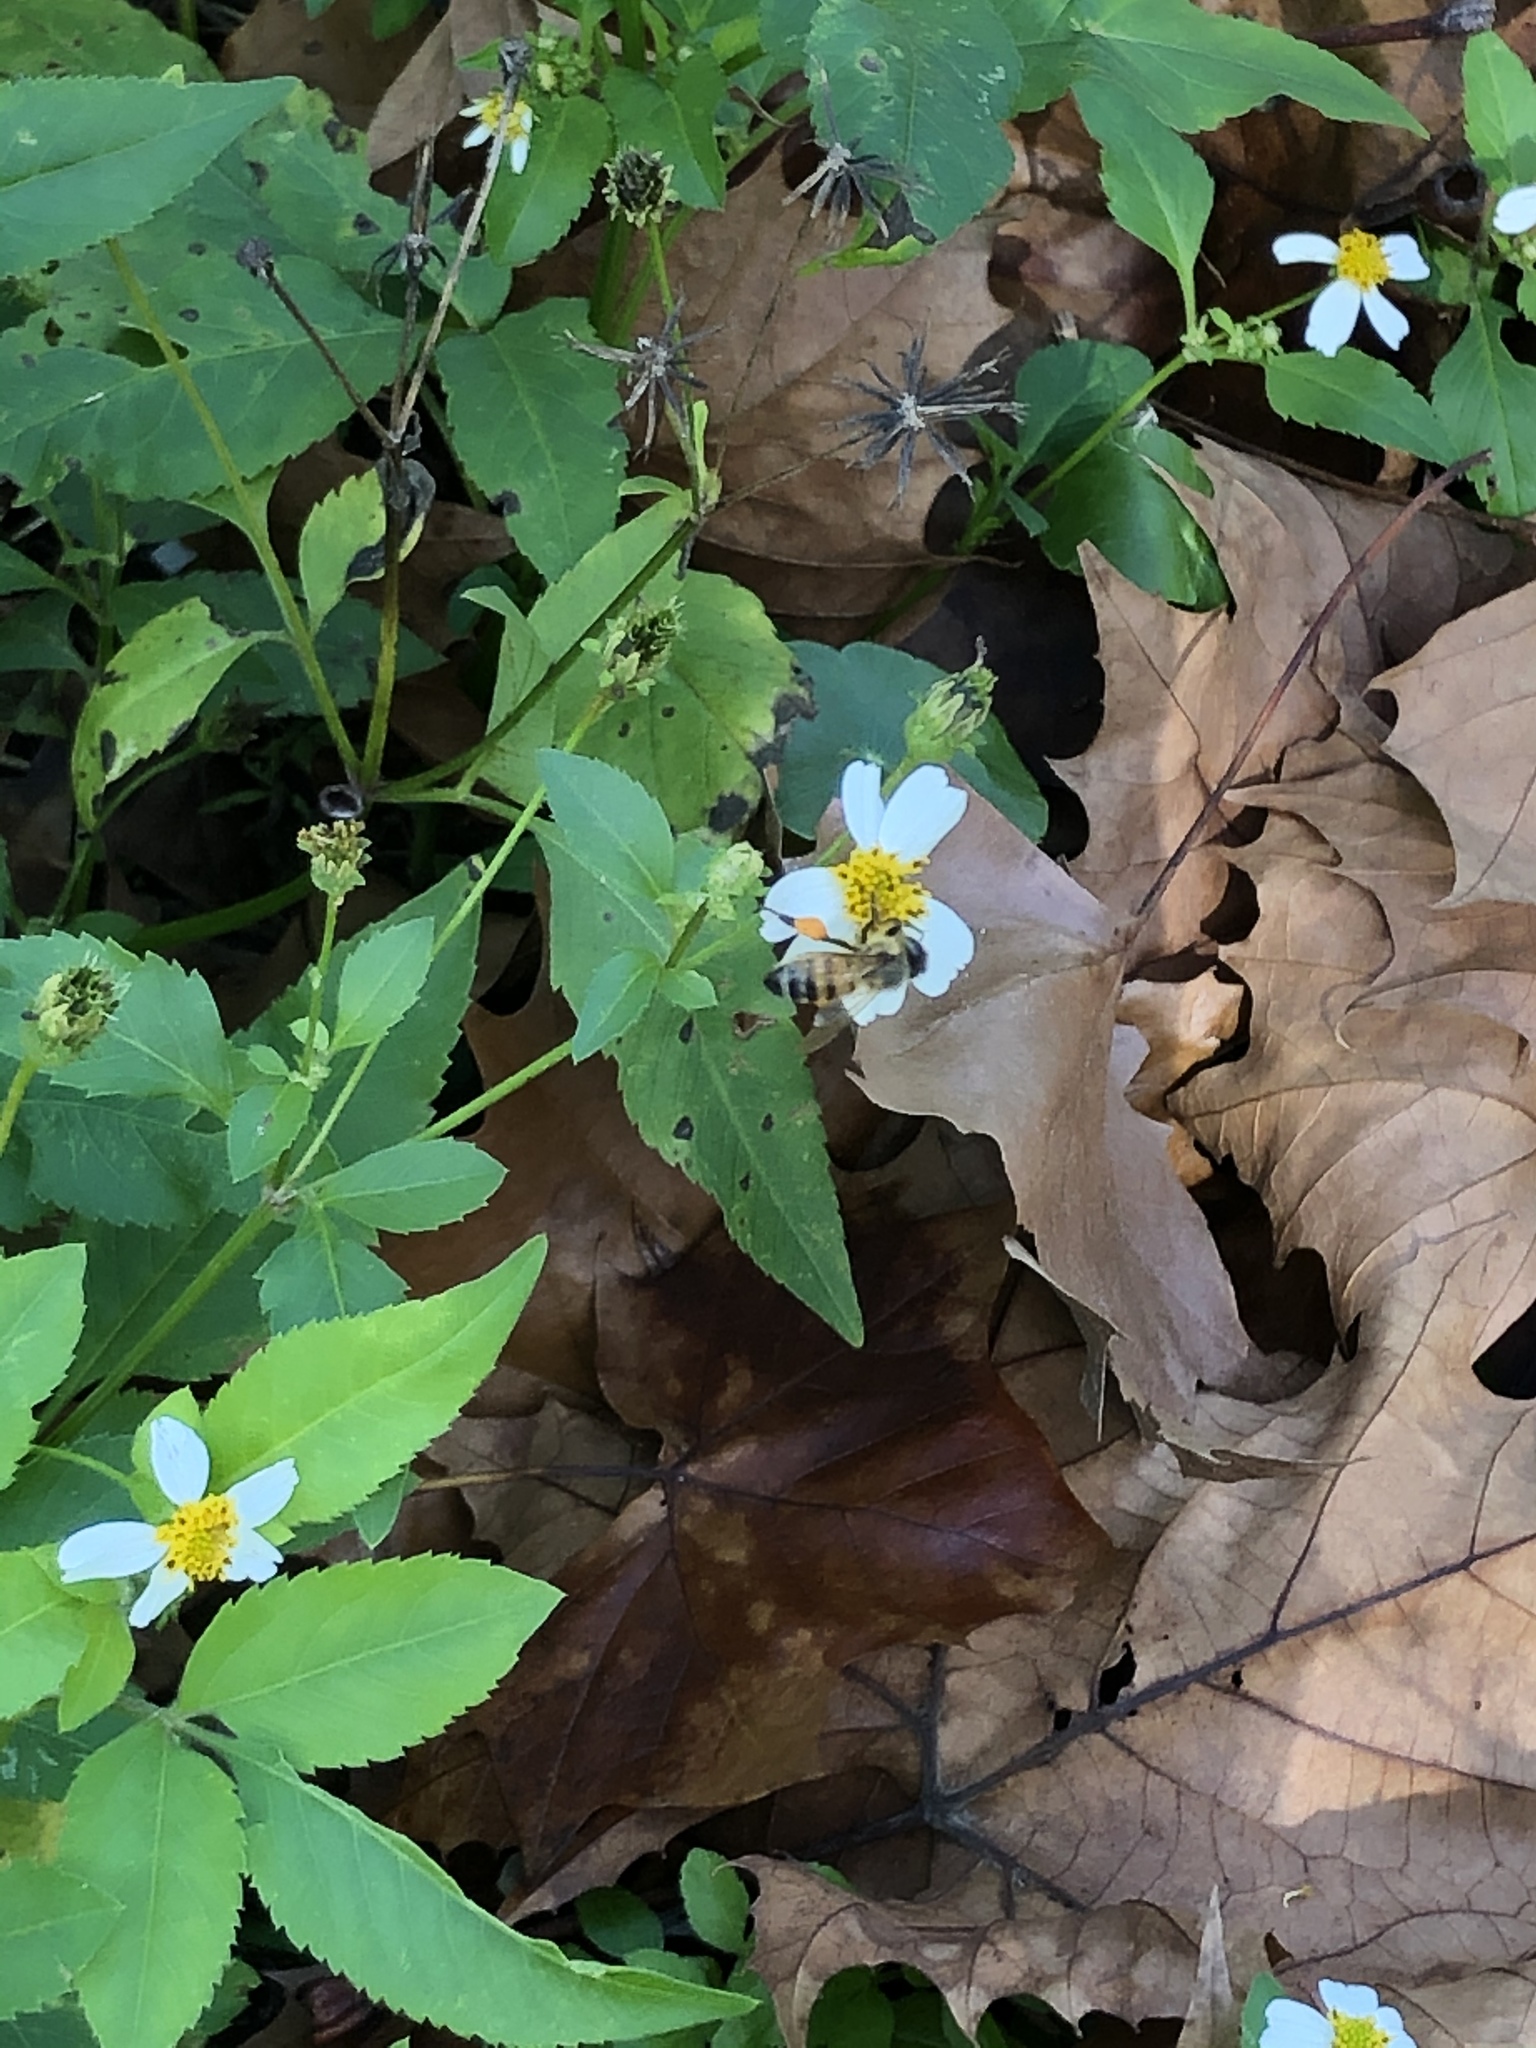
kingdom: Animalia
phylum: Arthropoda
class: Insecta
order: Hymenoptera
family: Apidae
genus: Apis
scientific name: Apis mellifera
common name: Honey bee
